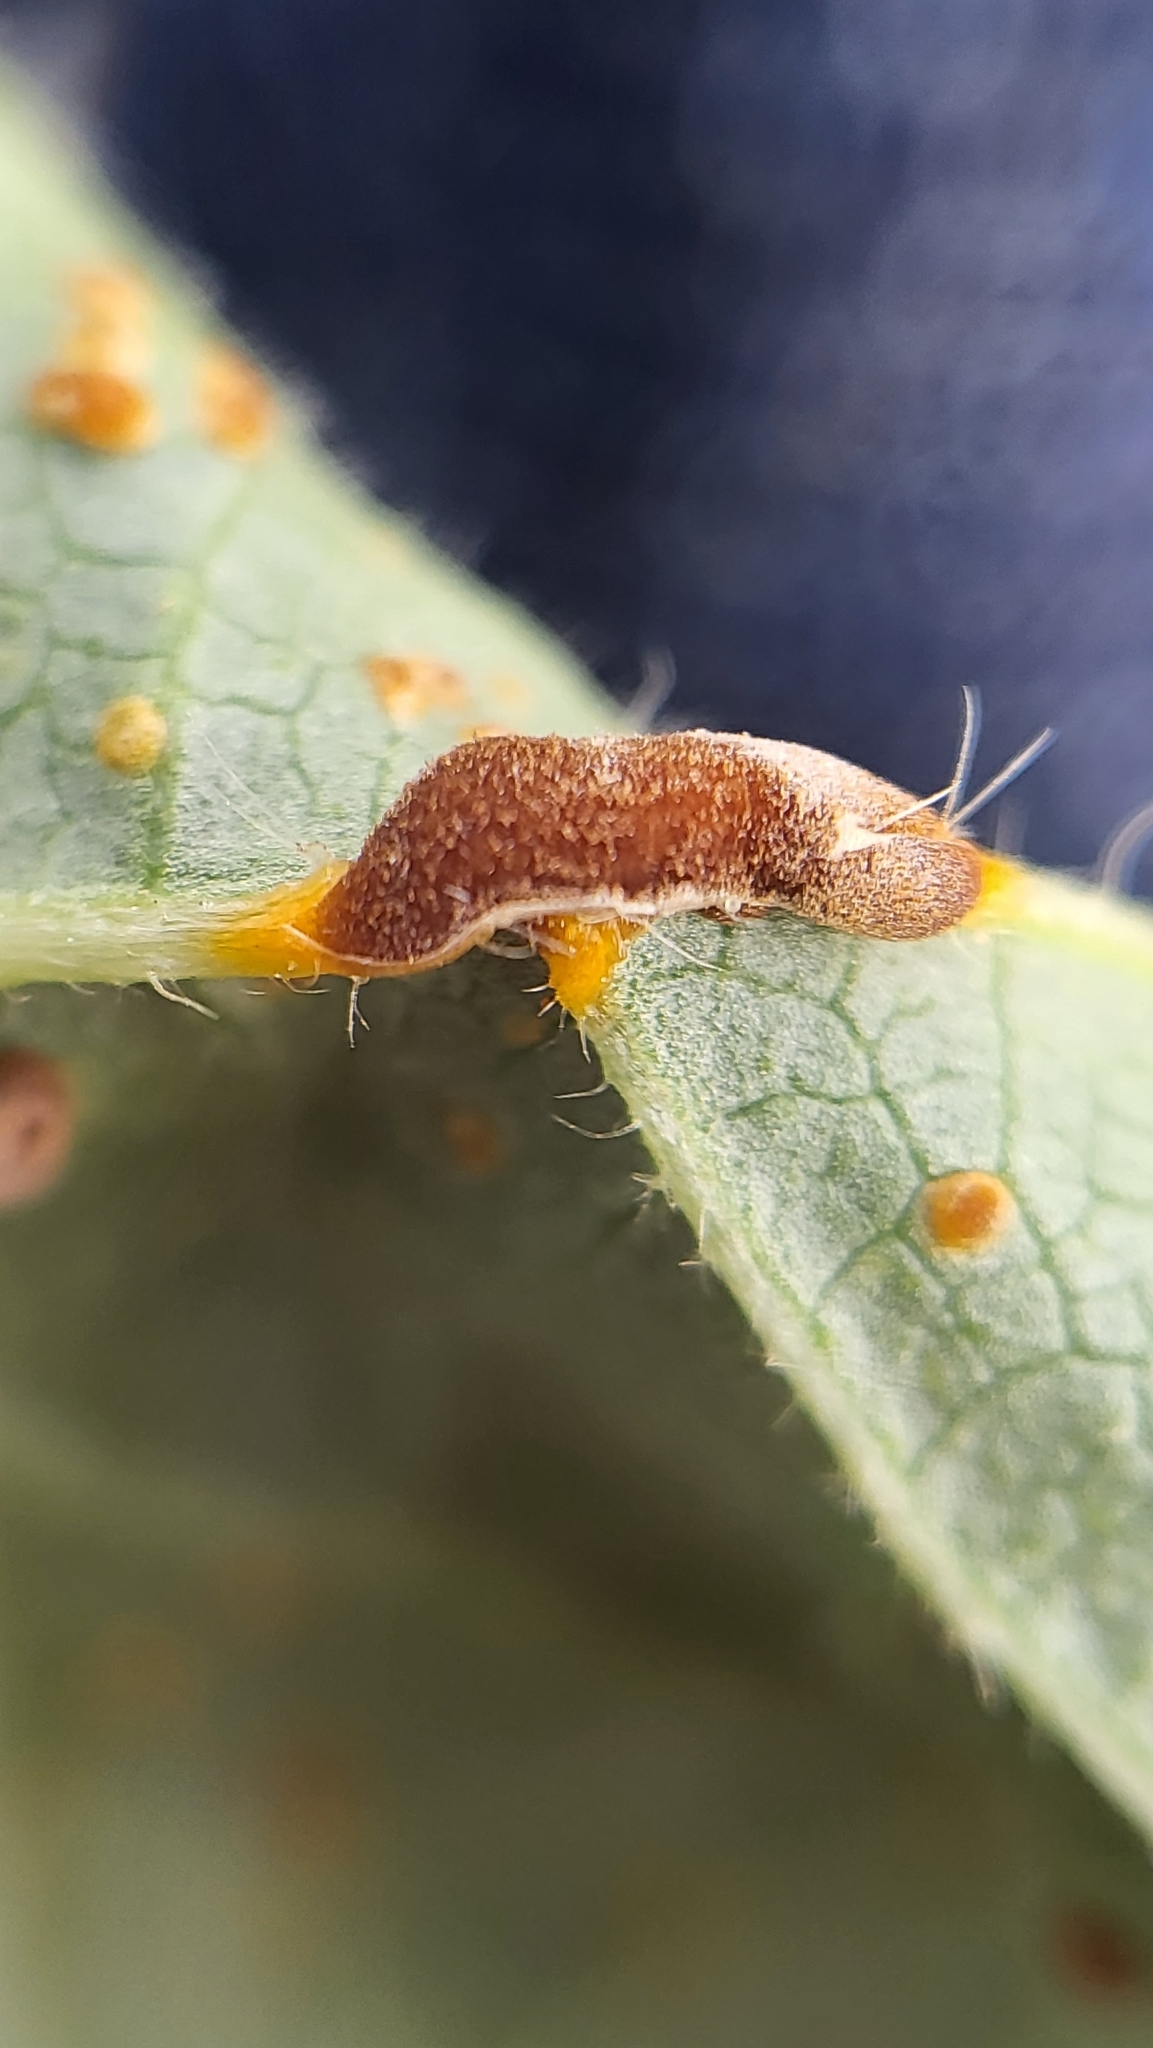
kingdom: Fungi
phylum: Basidiomycota
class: Pucciniomycetes
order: Pucciniales
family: Pucciniaceae
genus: Puccinia
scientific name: Puccinia malvacearum
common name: Hollyhock rust
